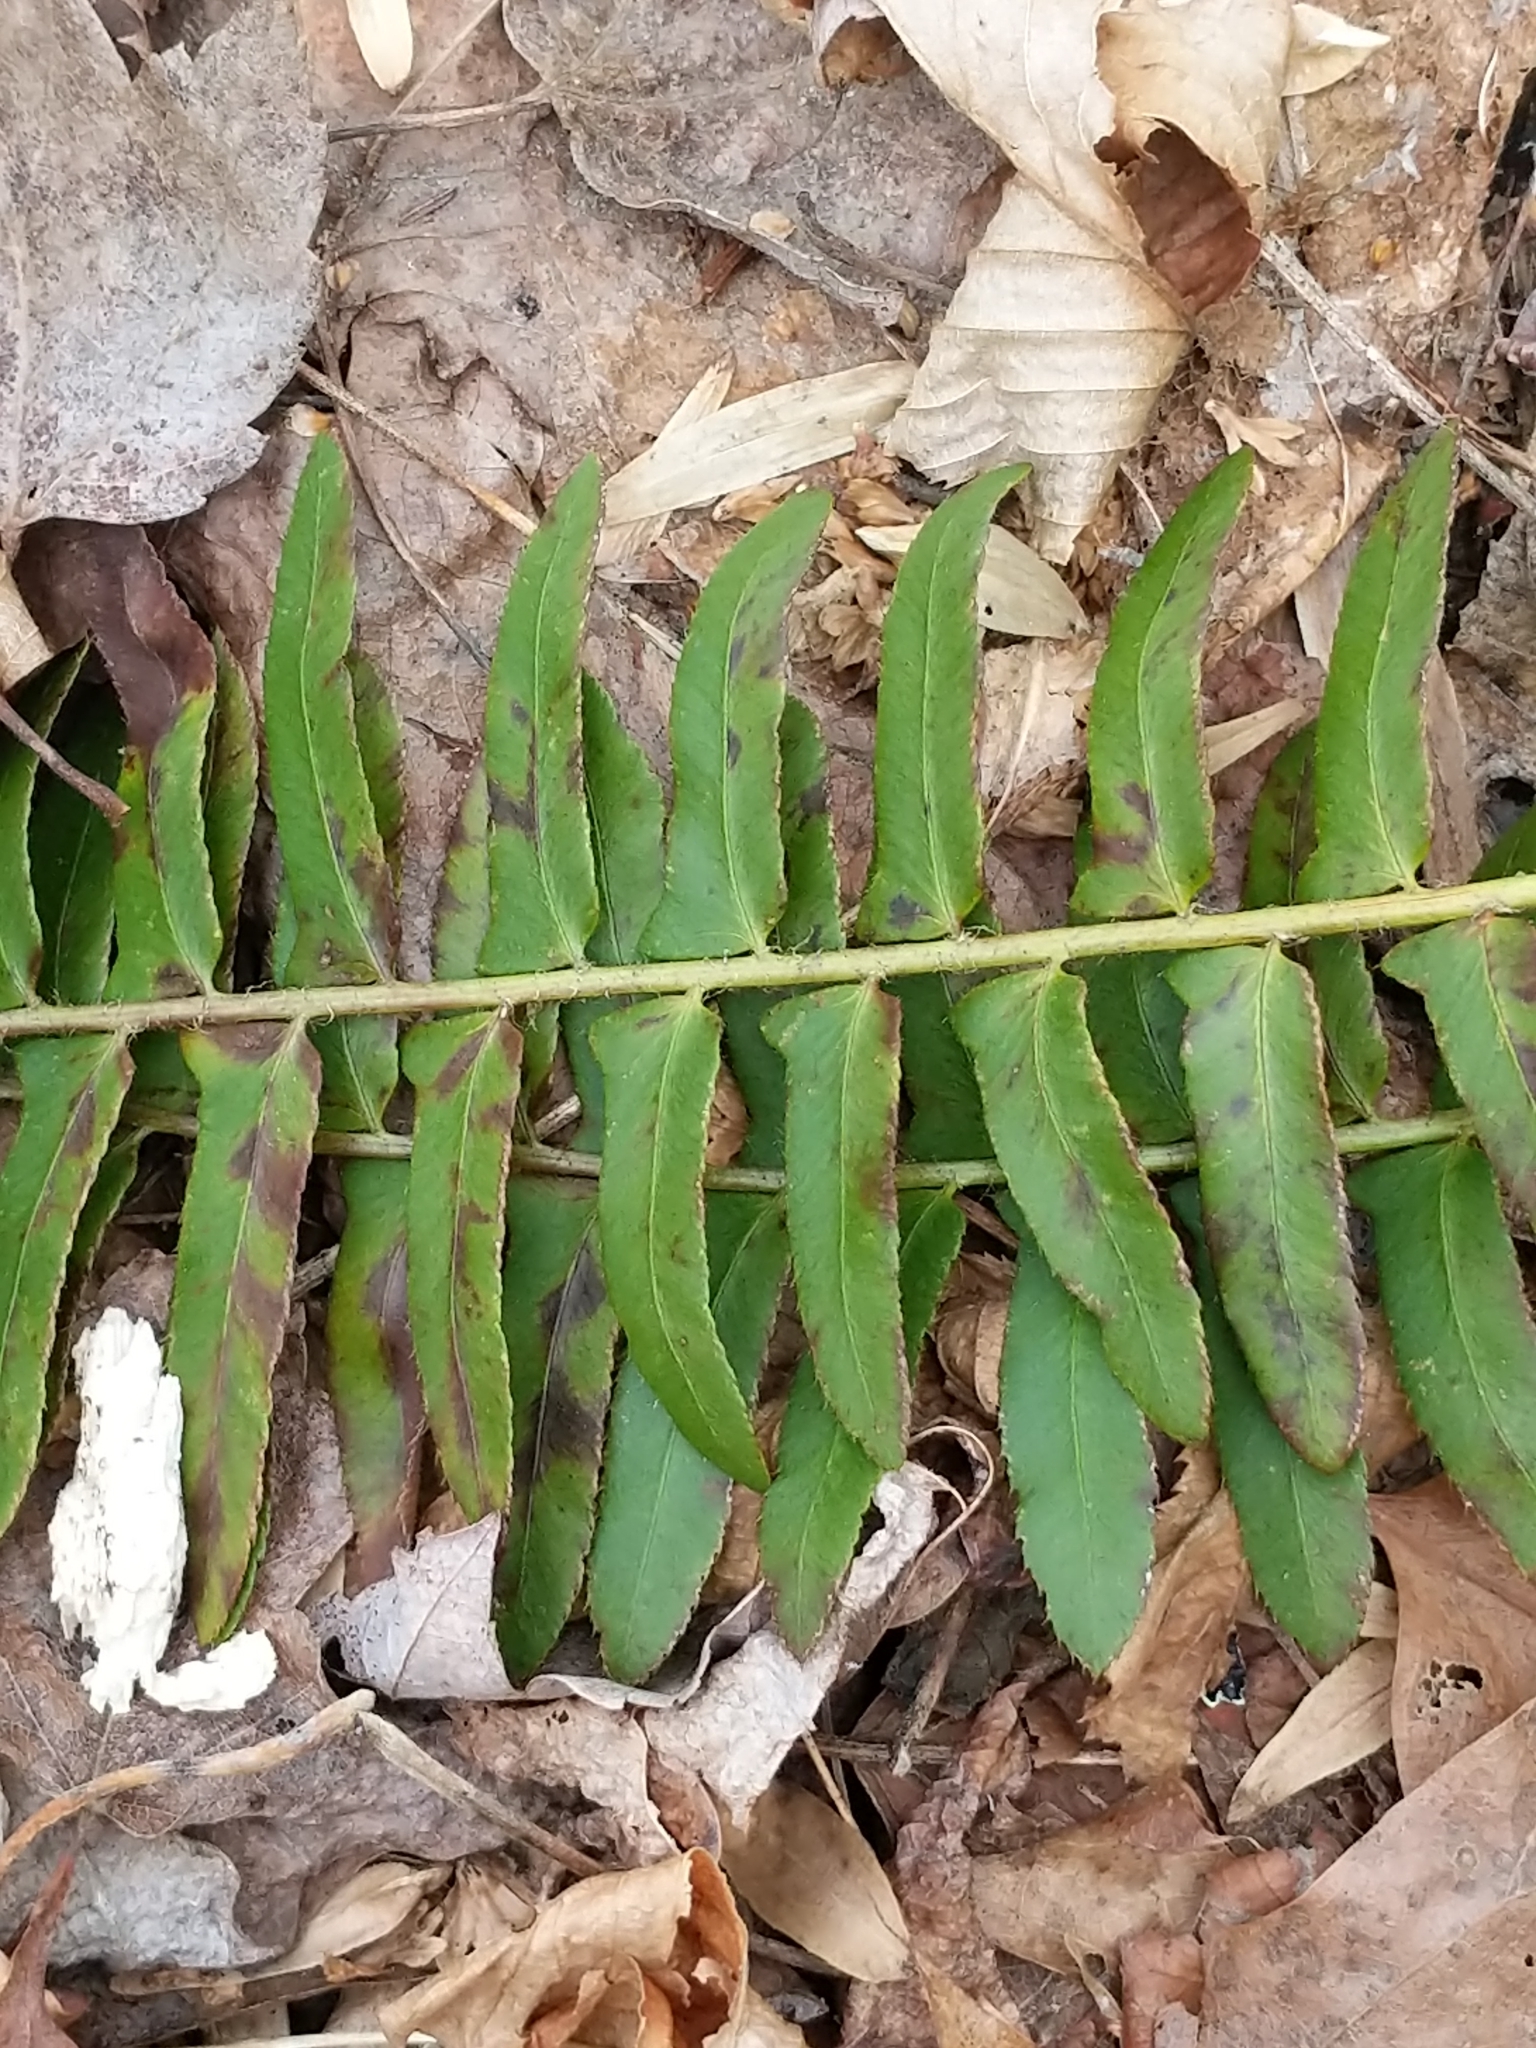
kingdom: Plantae
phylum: Tracheophyta
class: Polypodiopsida
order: Polypodiales
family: Dryopteridaceae
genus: Polystichum
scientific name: Polystichum acrostichoides
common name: Christmas fern
